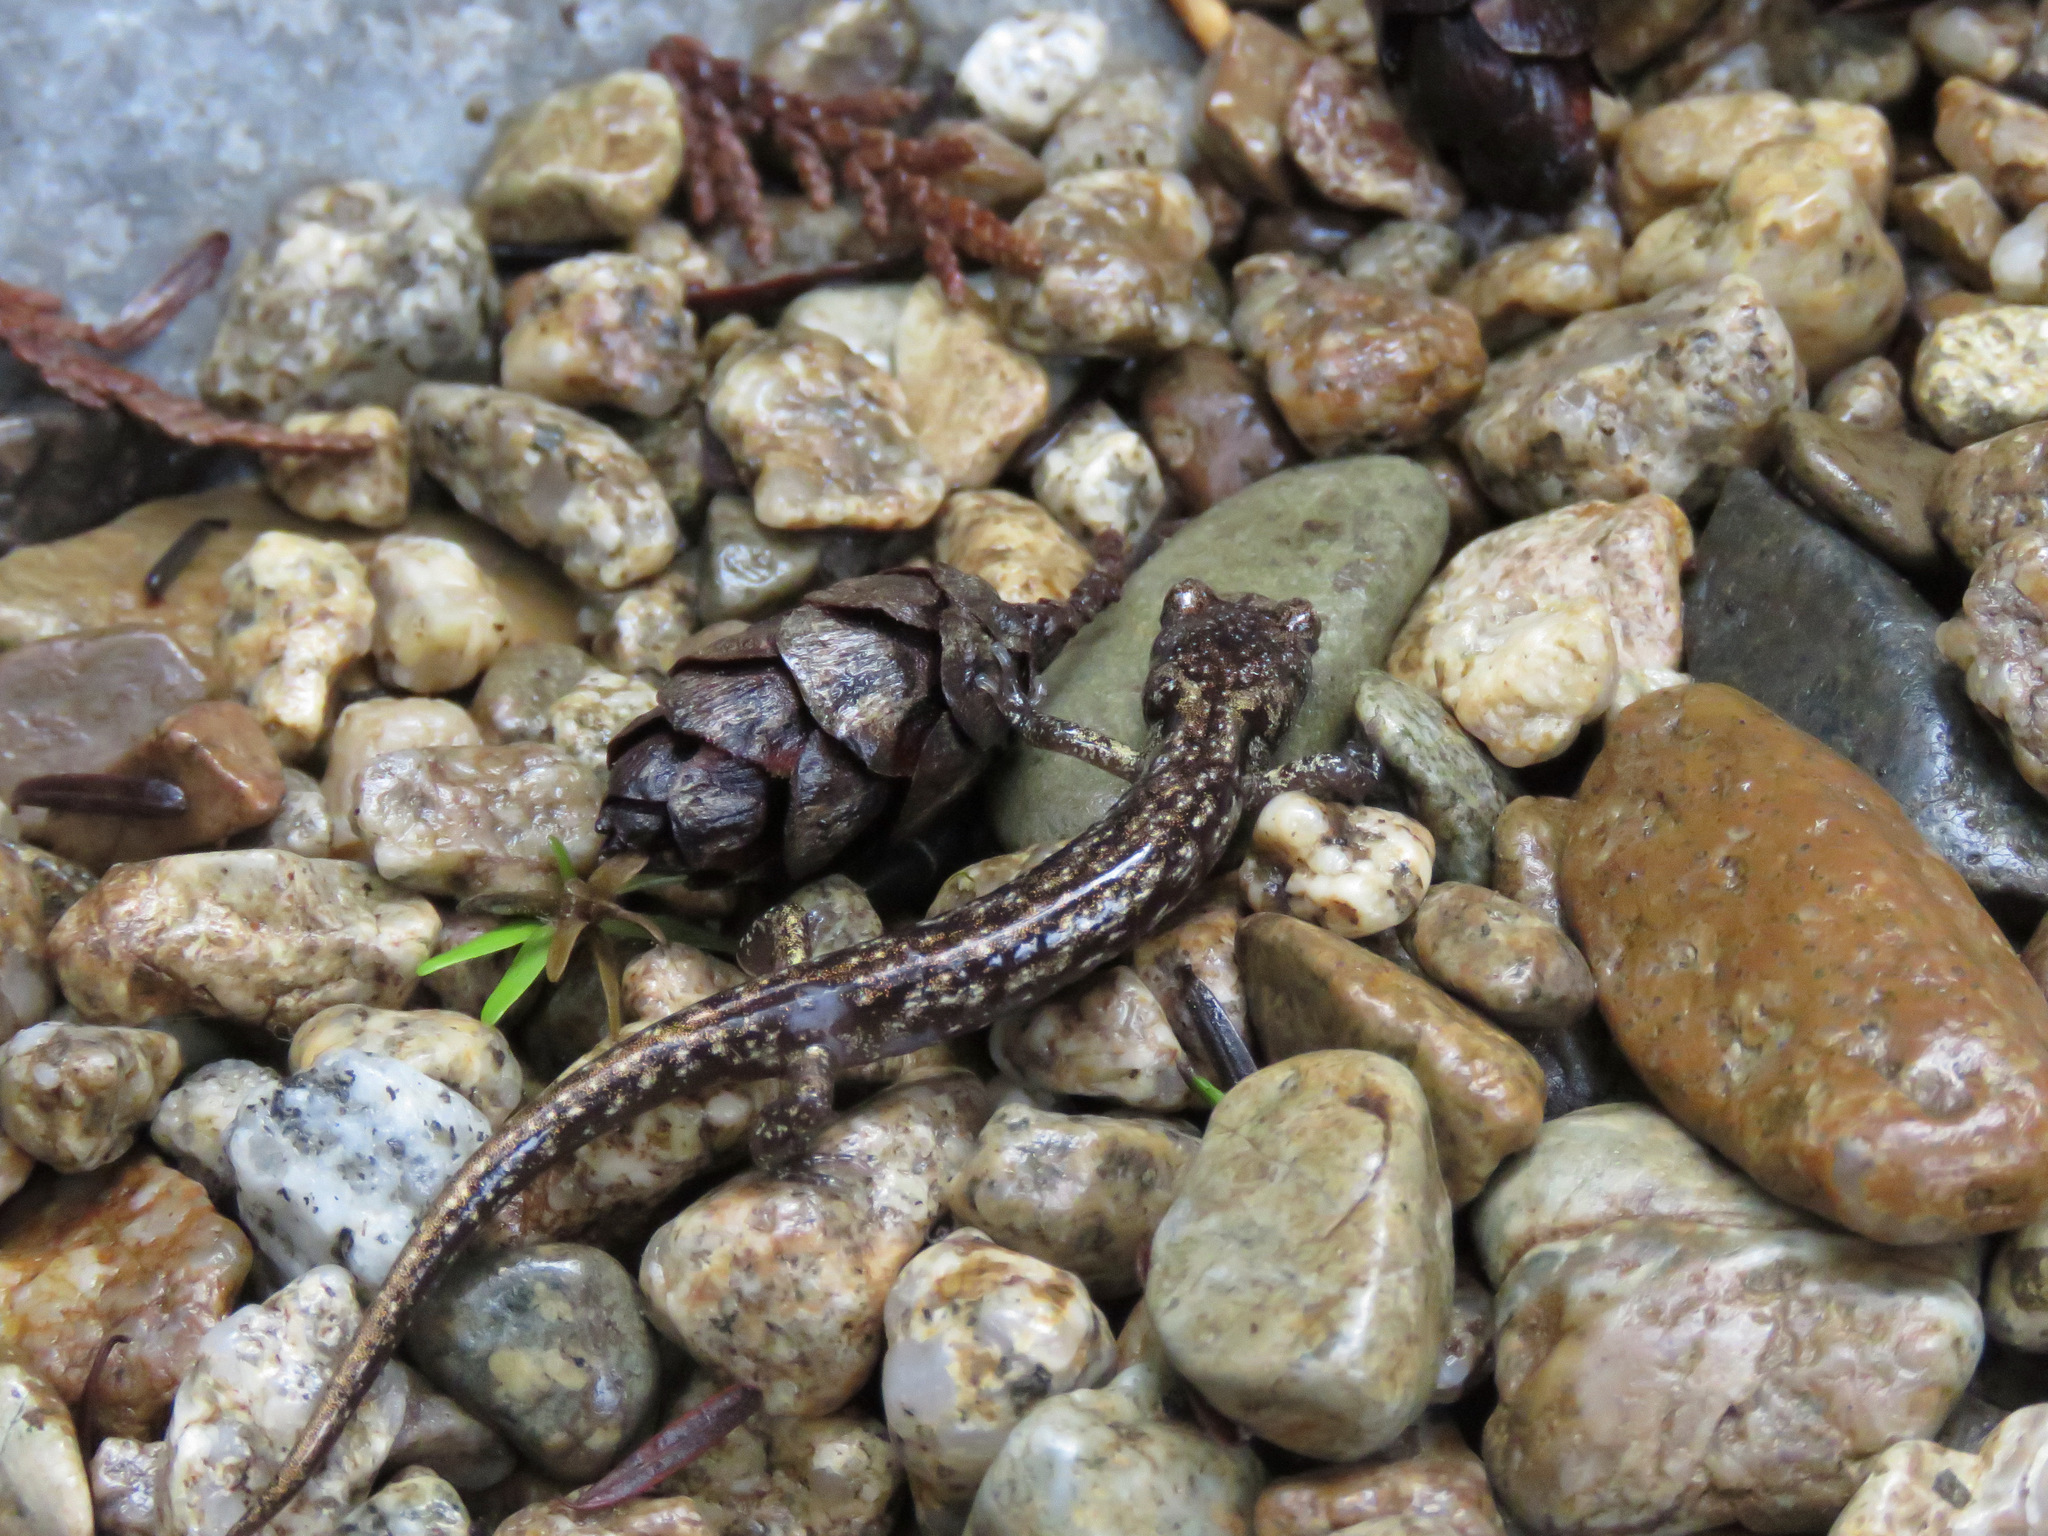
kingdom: Animalia
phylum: Chordata
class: Amphibia
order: Caudata
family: Plethodontidae
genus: Aneides
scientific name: Aneides vagrans
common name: Wandering salamander
